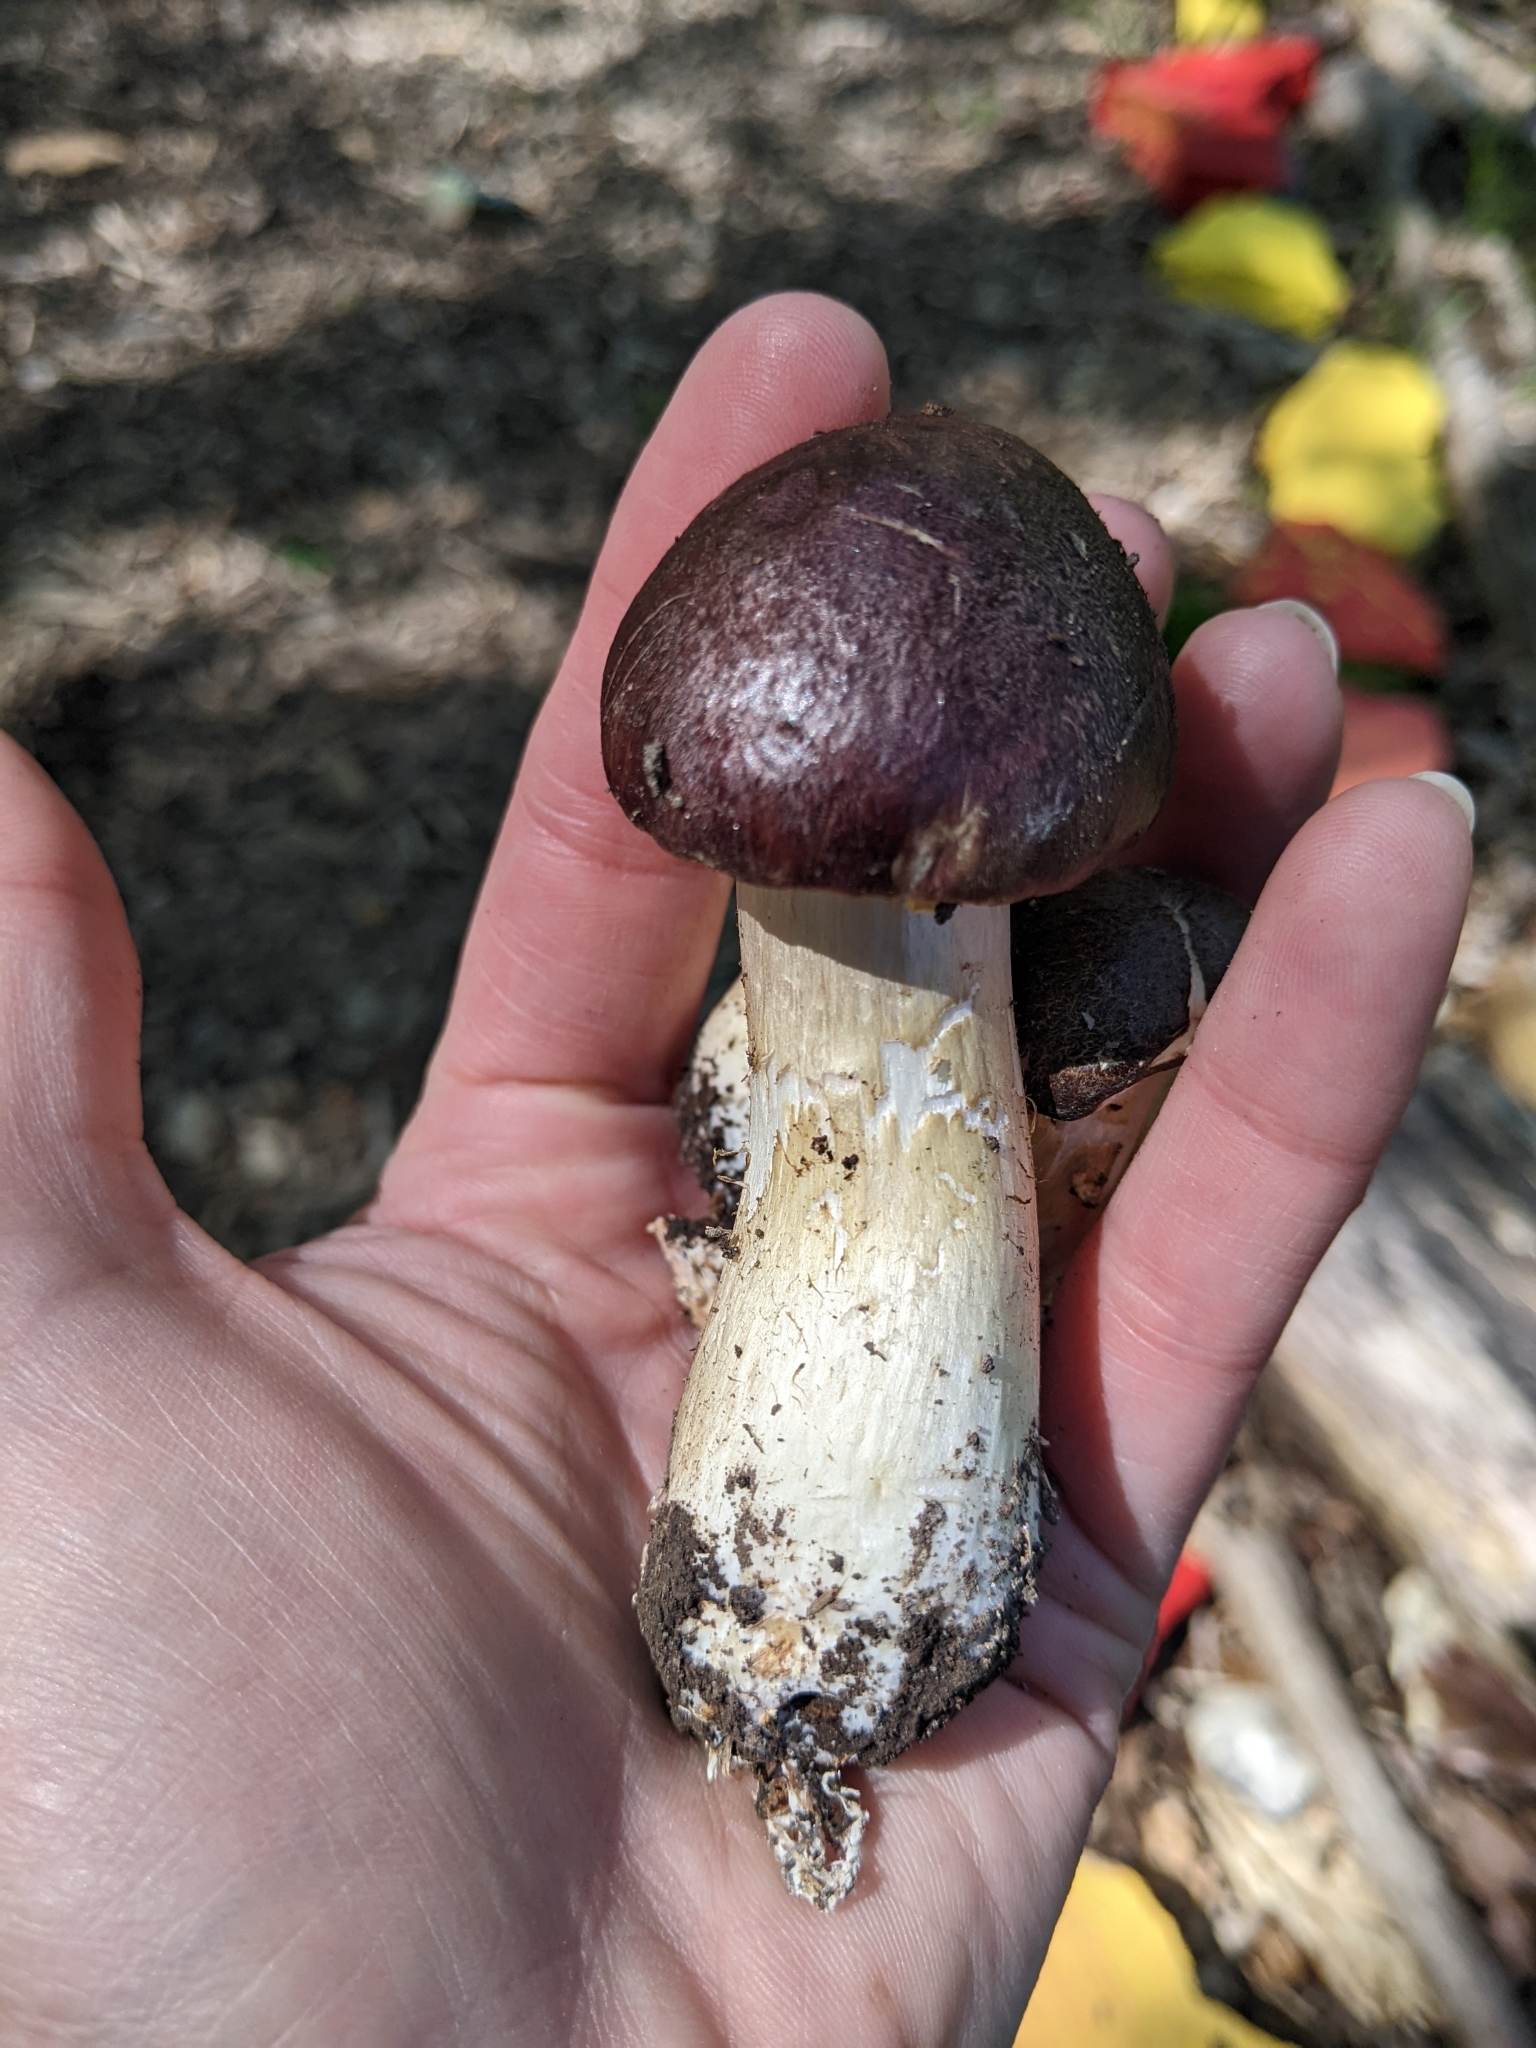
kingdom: Fungi
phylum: Basidiomycota
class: Agaricomycetes
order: Agaricales
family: Strophariaceae
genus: Stropharia
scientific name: Stropharia rugosoannulata
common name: Wine roundhead
